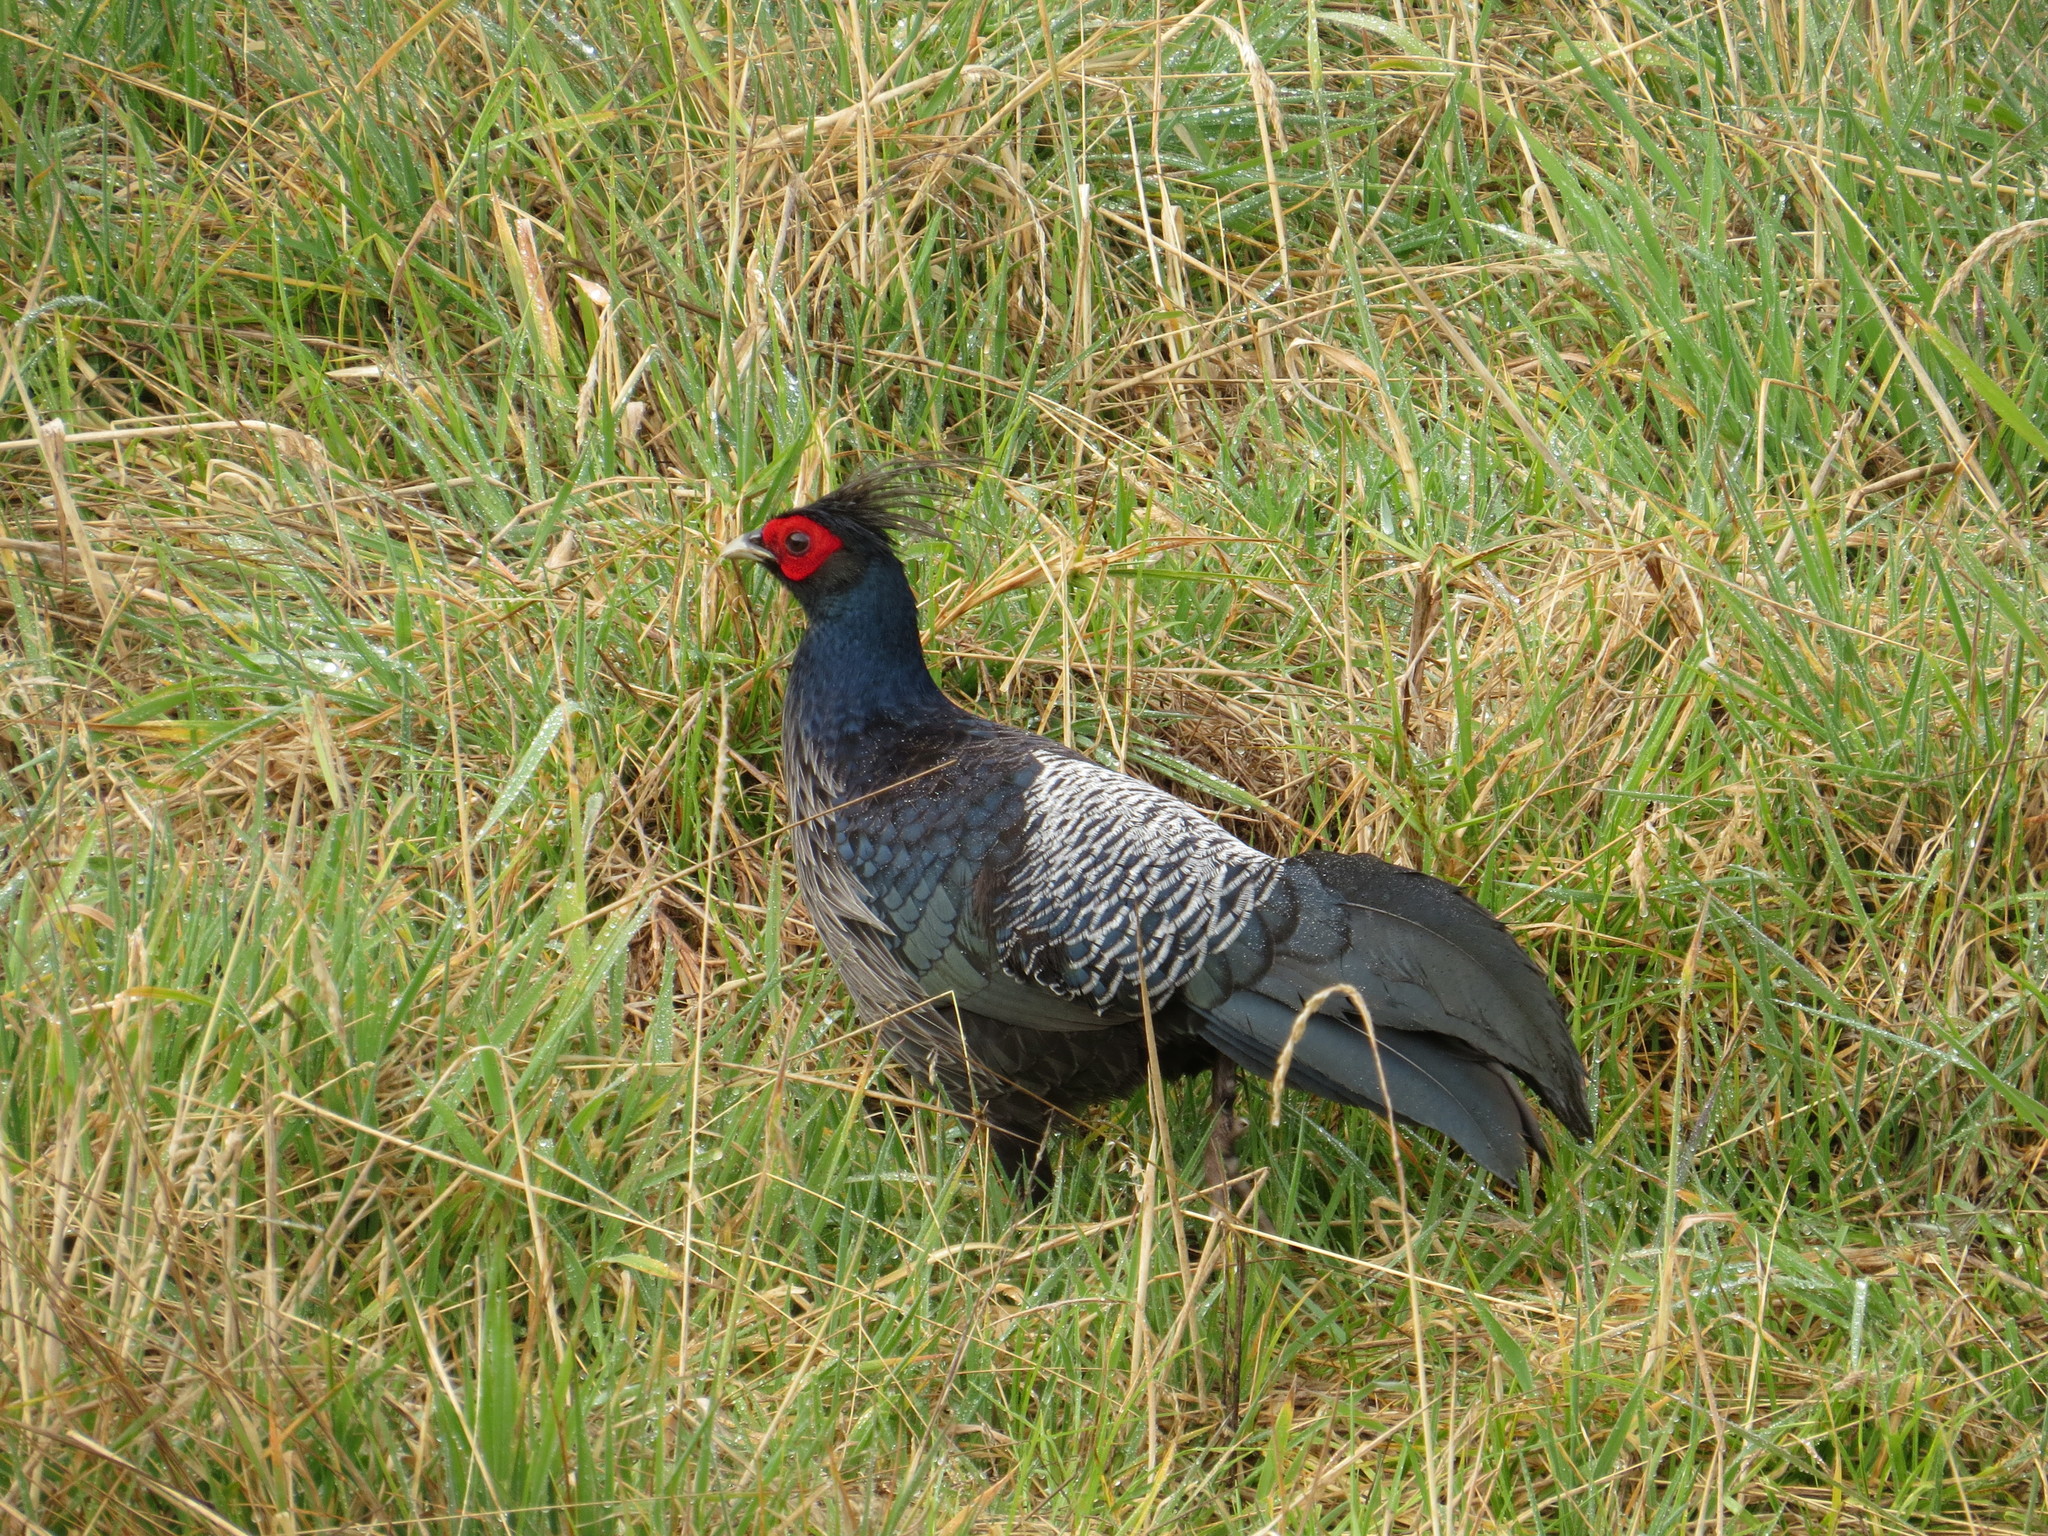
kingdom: Animalia
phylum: Chordata
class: Aves
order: Galliformes
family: Phasianidae
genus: Lophura
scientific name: Lophura leucomelanos
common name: Kalij pheasant
